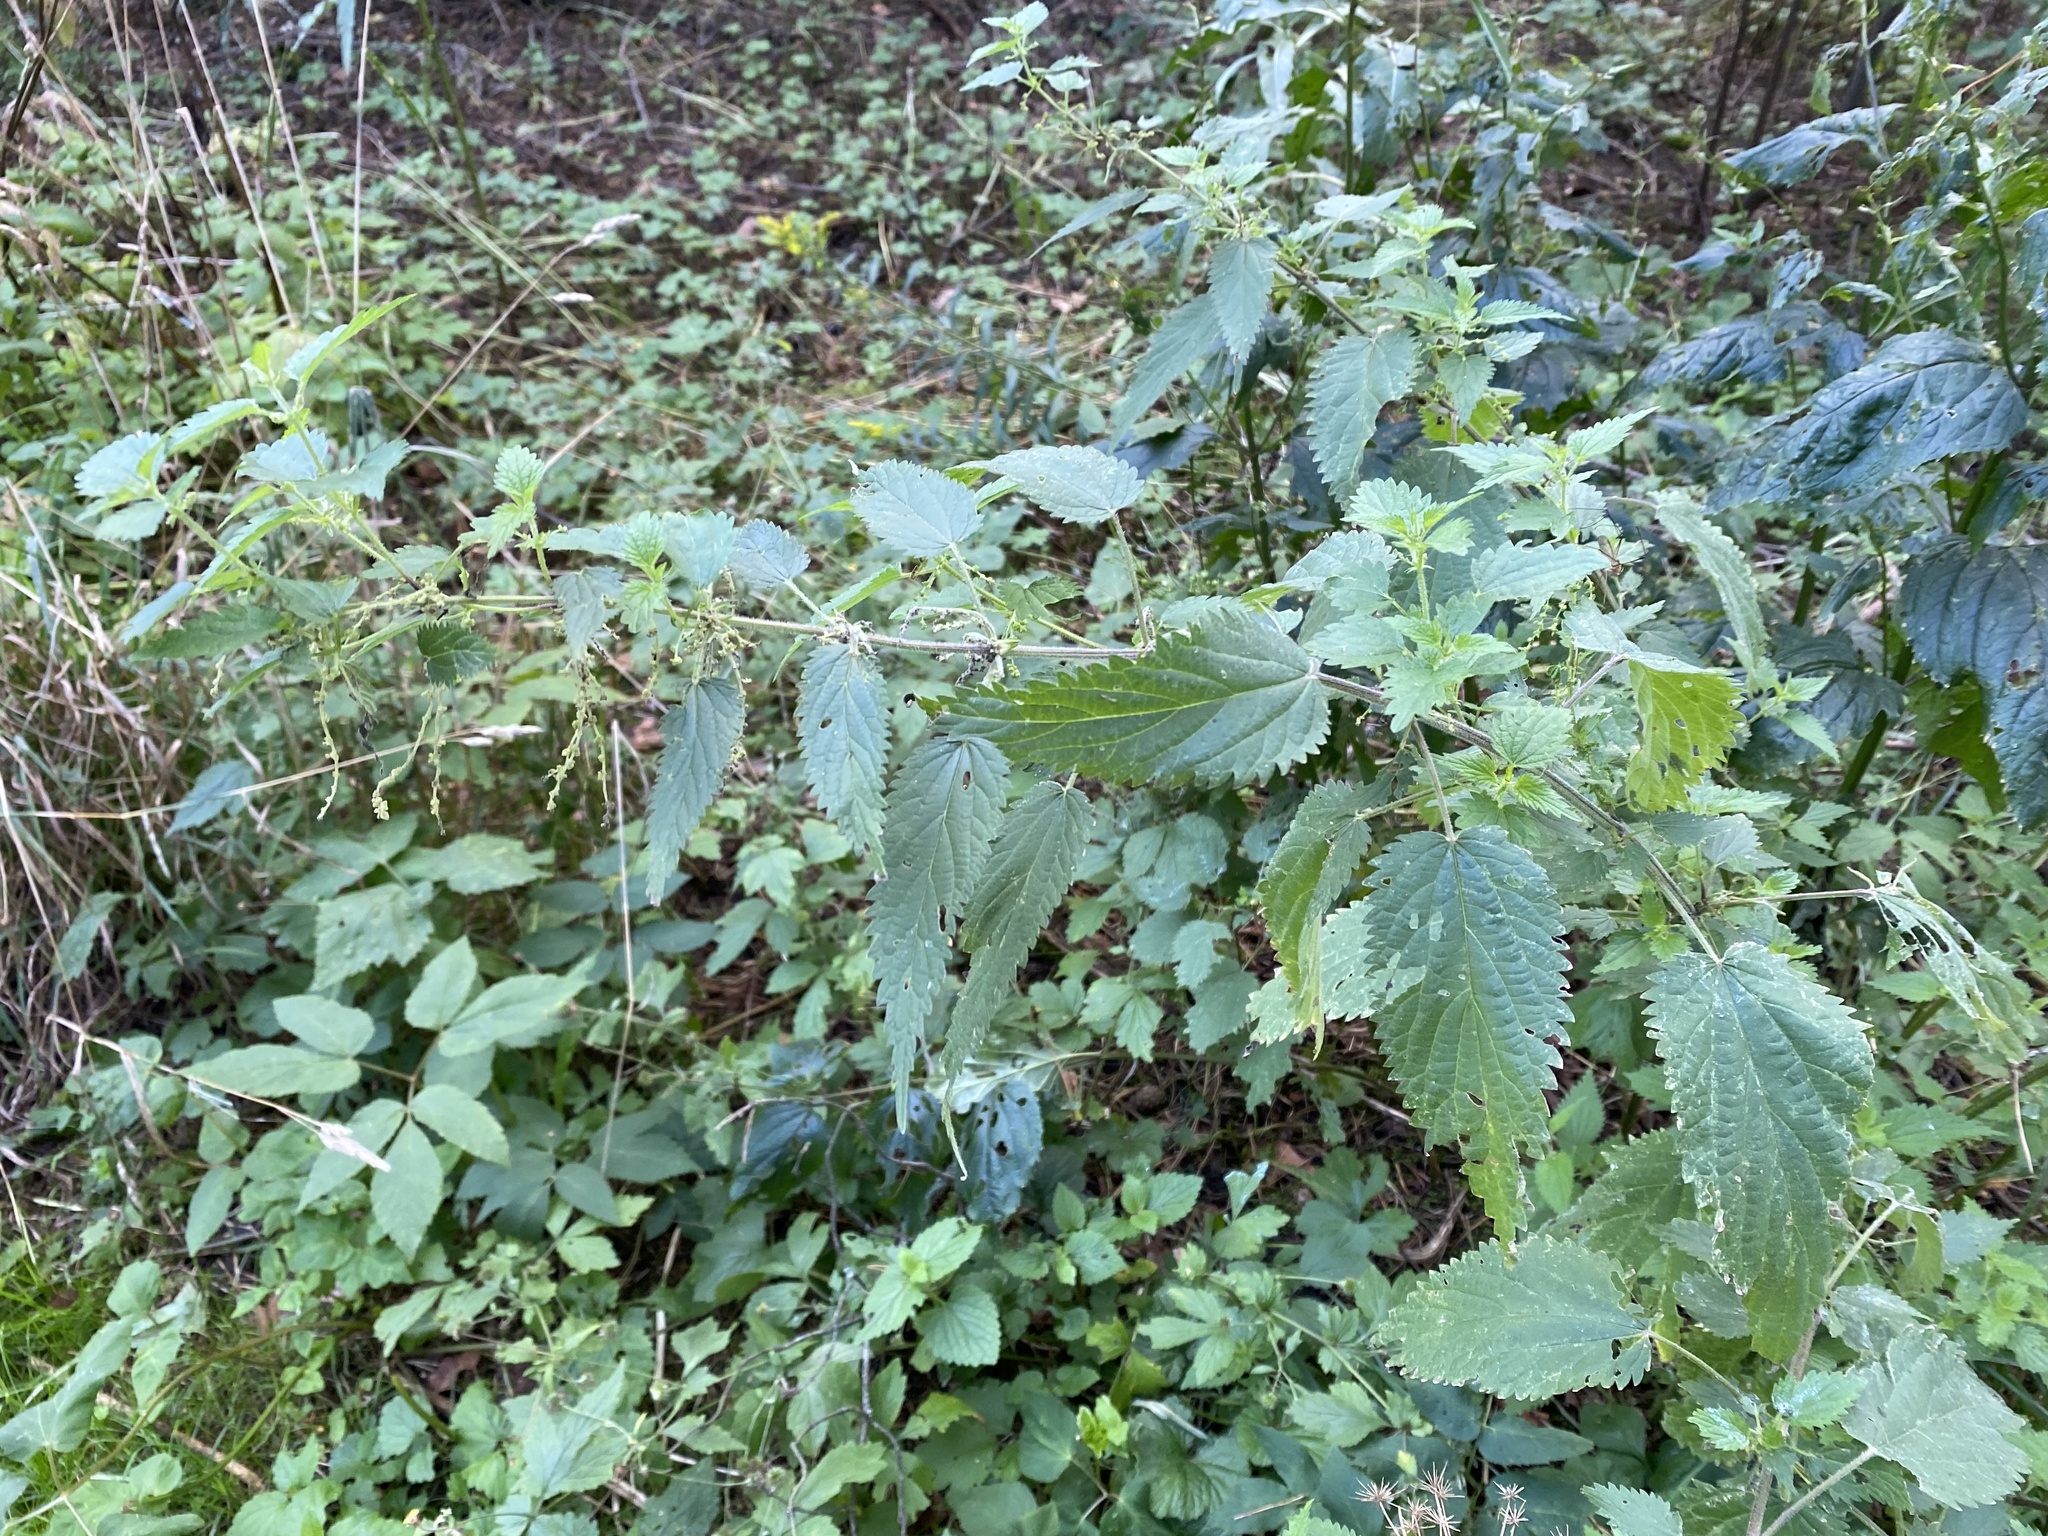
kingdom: Plantae
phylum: Tracheophyta
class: Magnoliopsida
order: Rosales
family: Urticaceae
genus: Urtica
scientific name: Urtica dioica
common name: Common nettle
